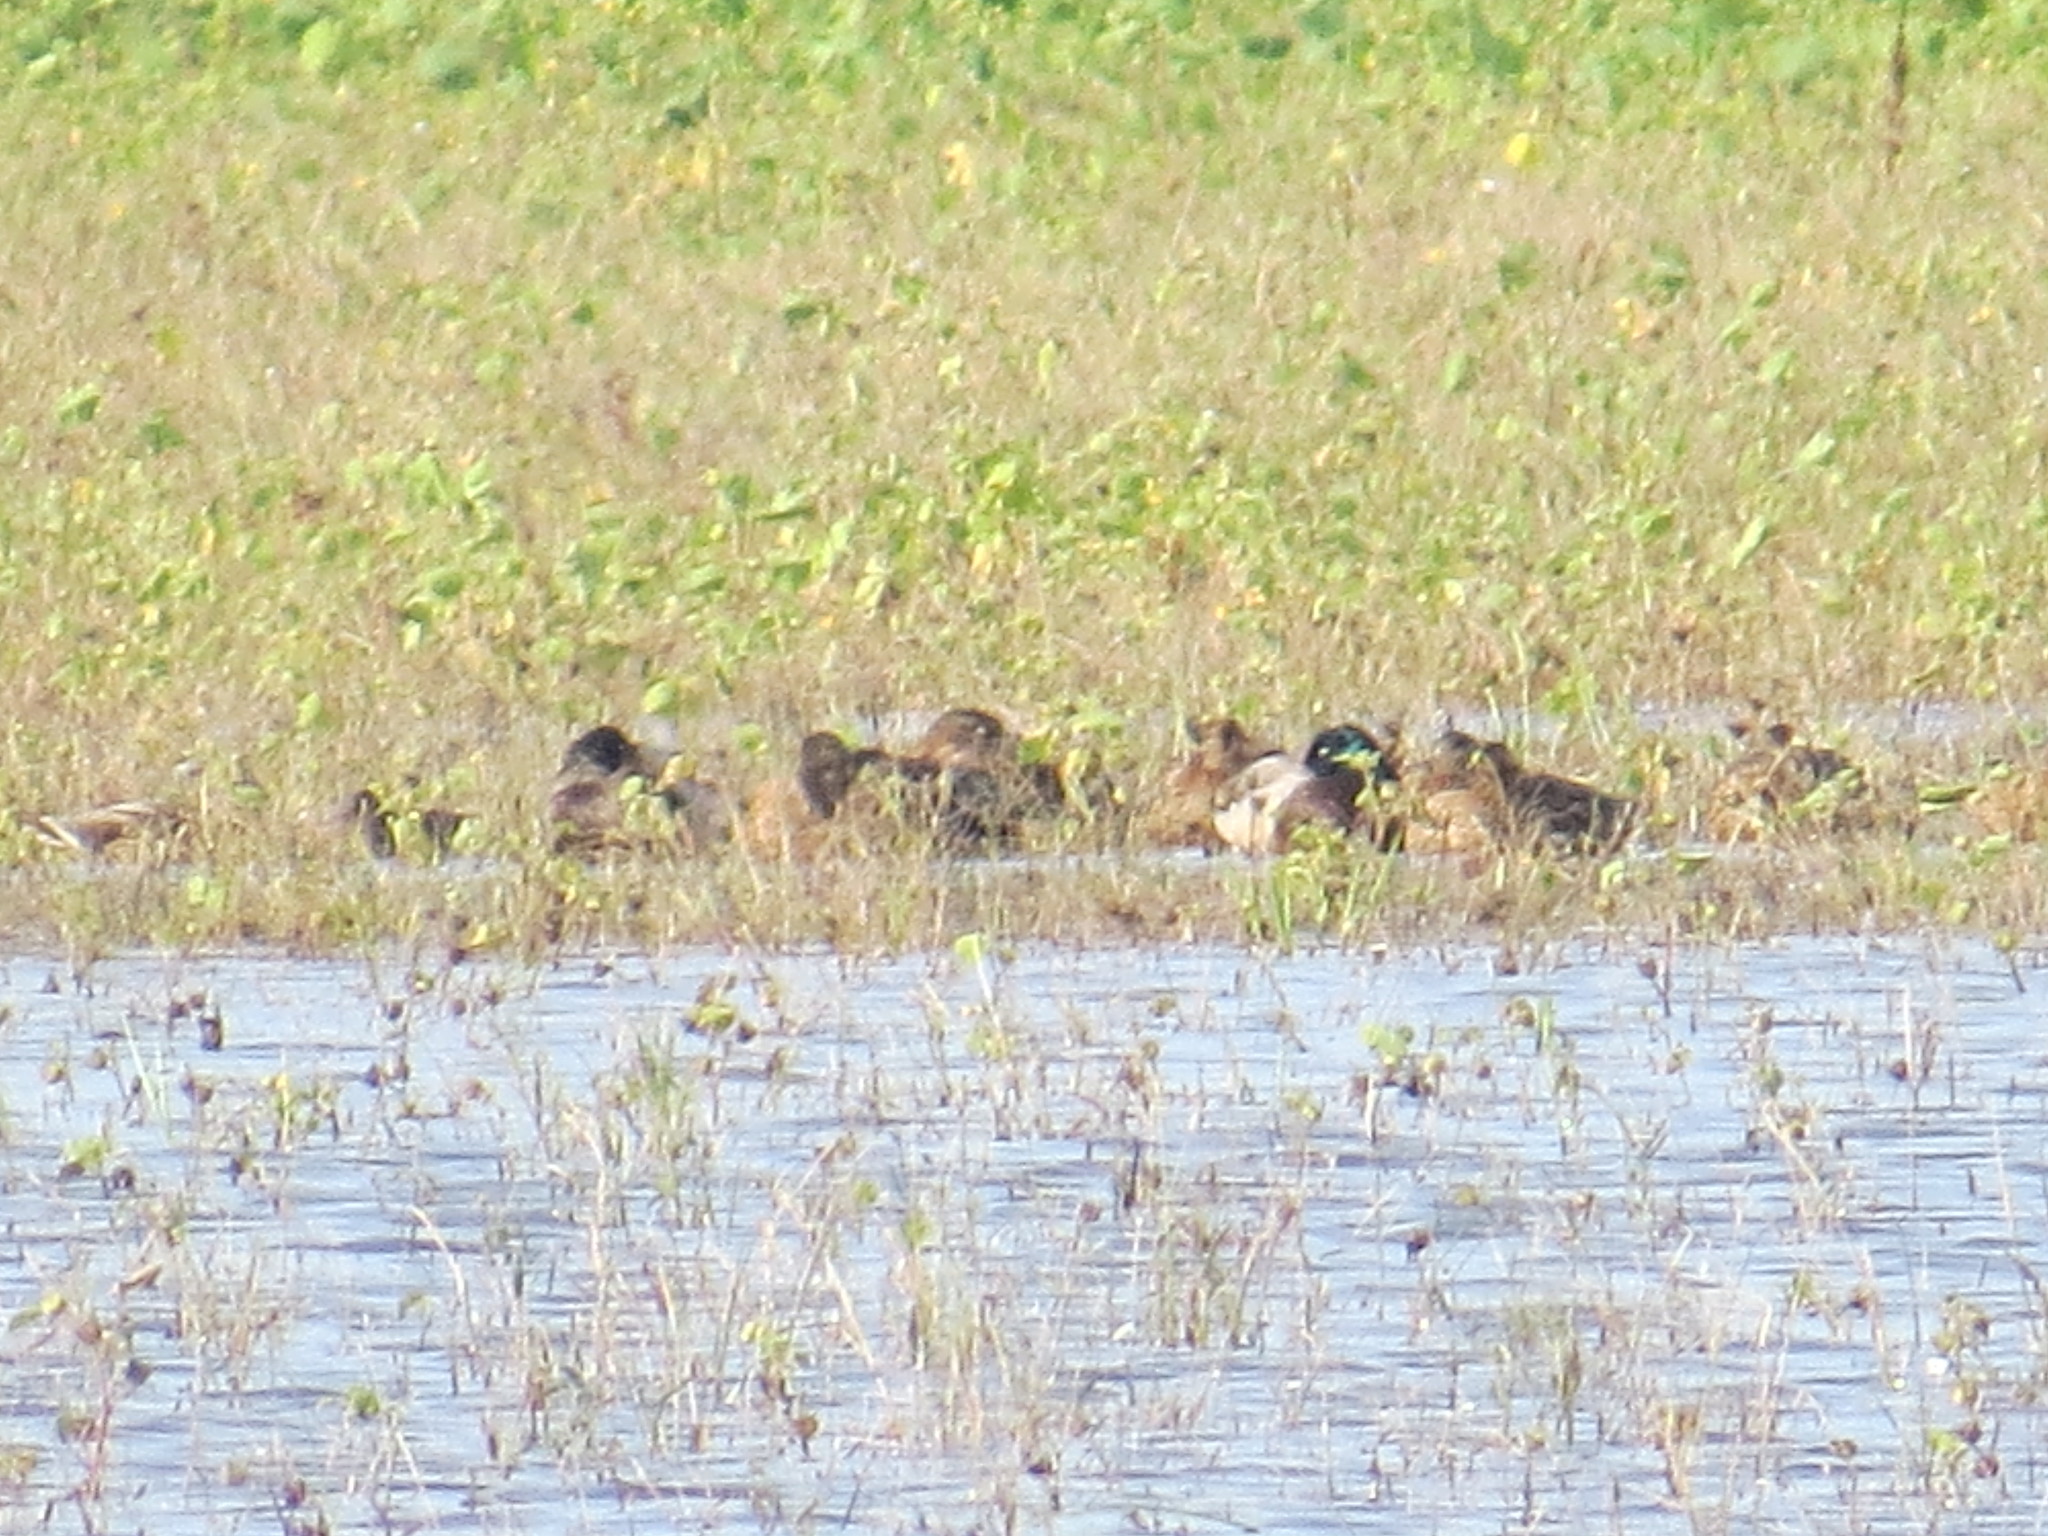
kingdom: Animalia
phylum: Chordata
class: Aves
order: Anseriformes
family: Anatidae
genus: Anas
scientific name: Anas platyrhynchos
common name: Mallard
